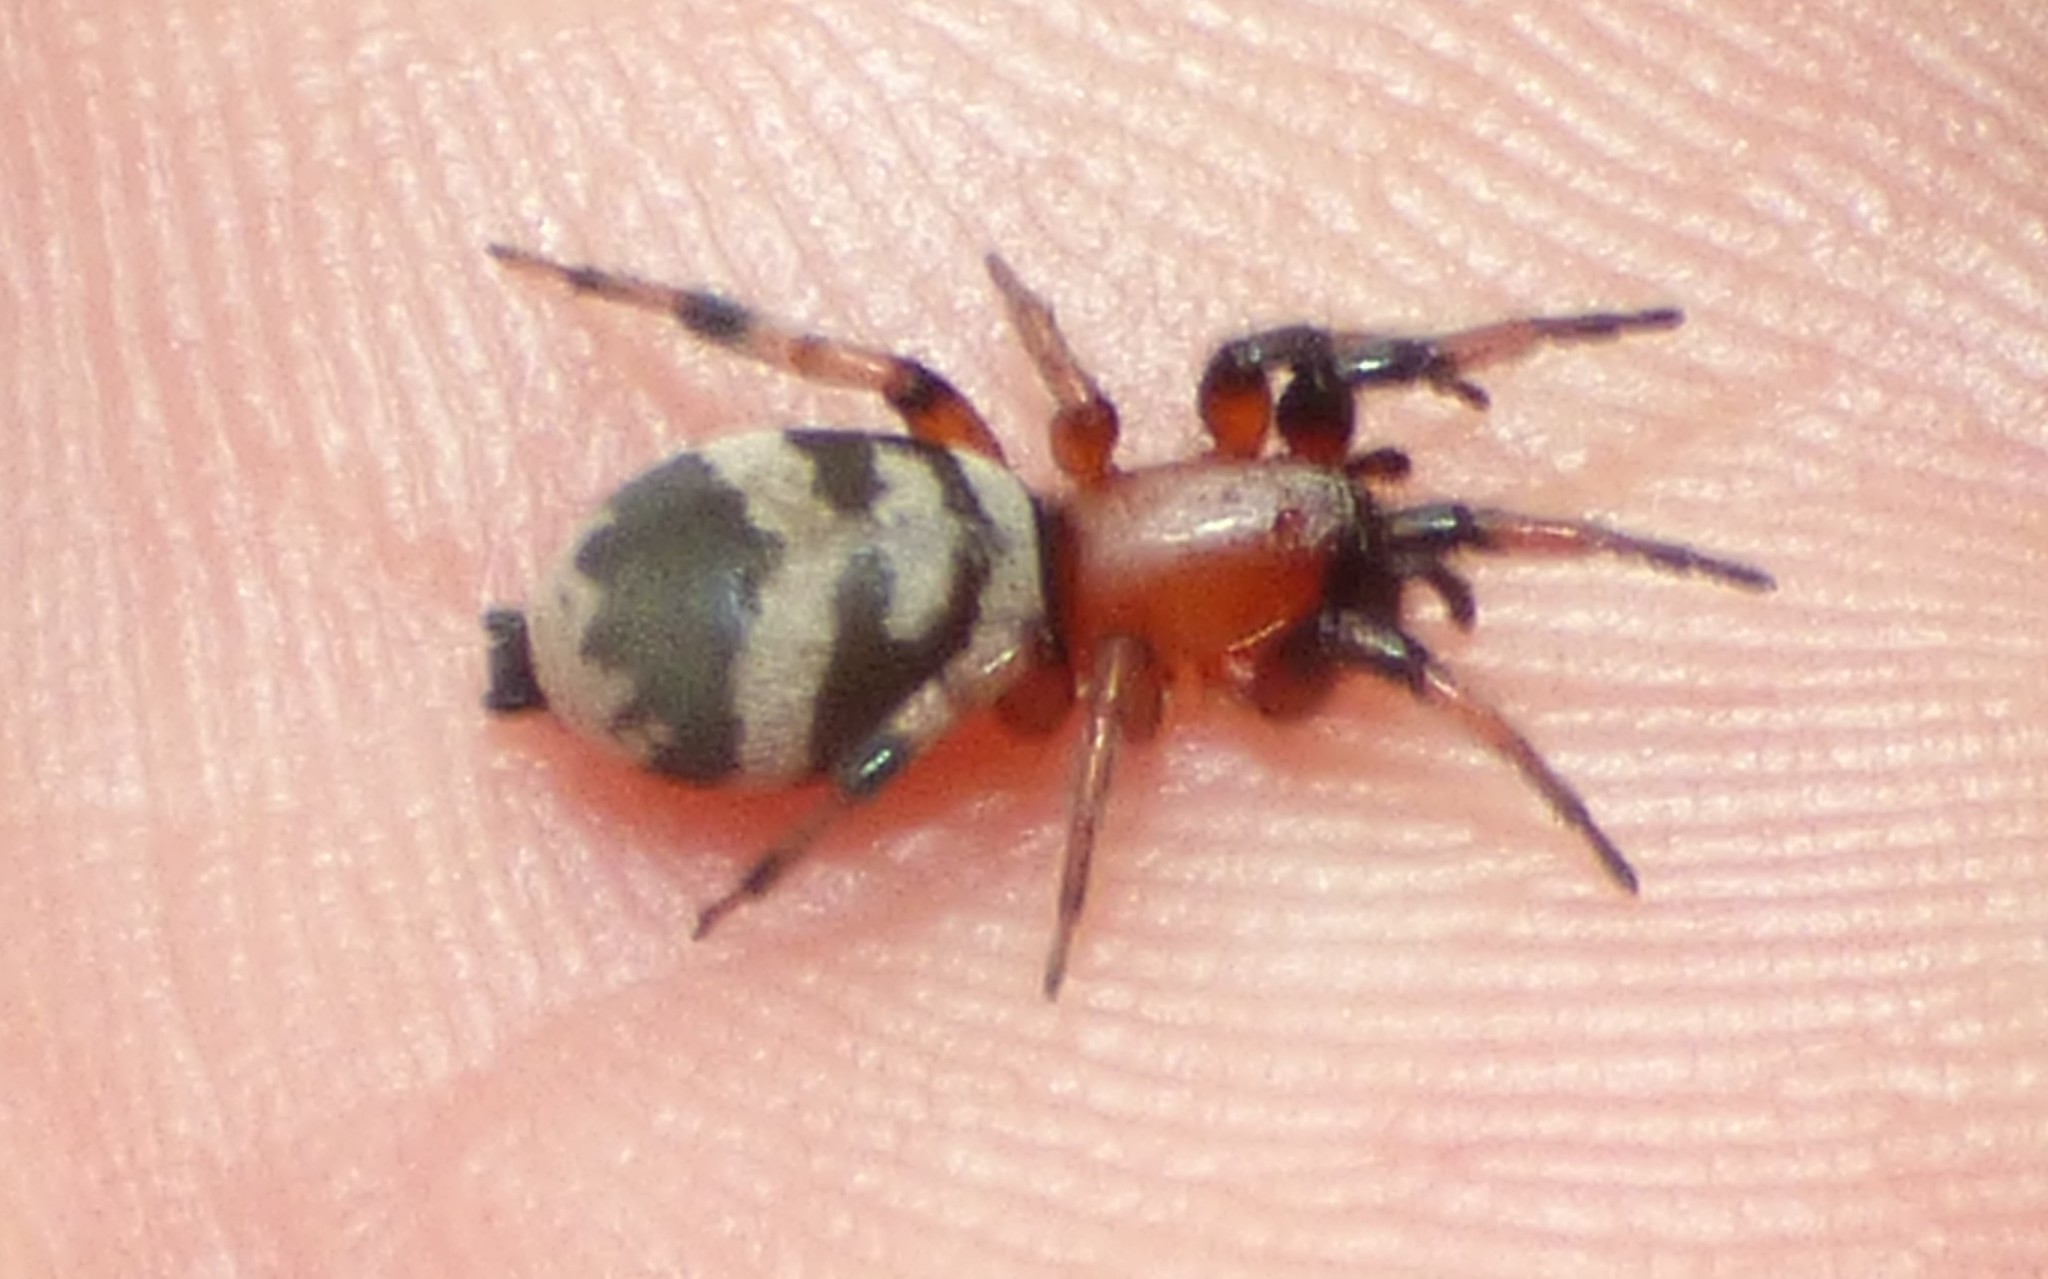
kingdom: Animalia
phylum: Arthropoda
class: Arachnida
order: Araneae
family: Gnaphosidae
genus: Sergiolus
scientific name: Sergiolus capulatus
